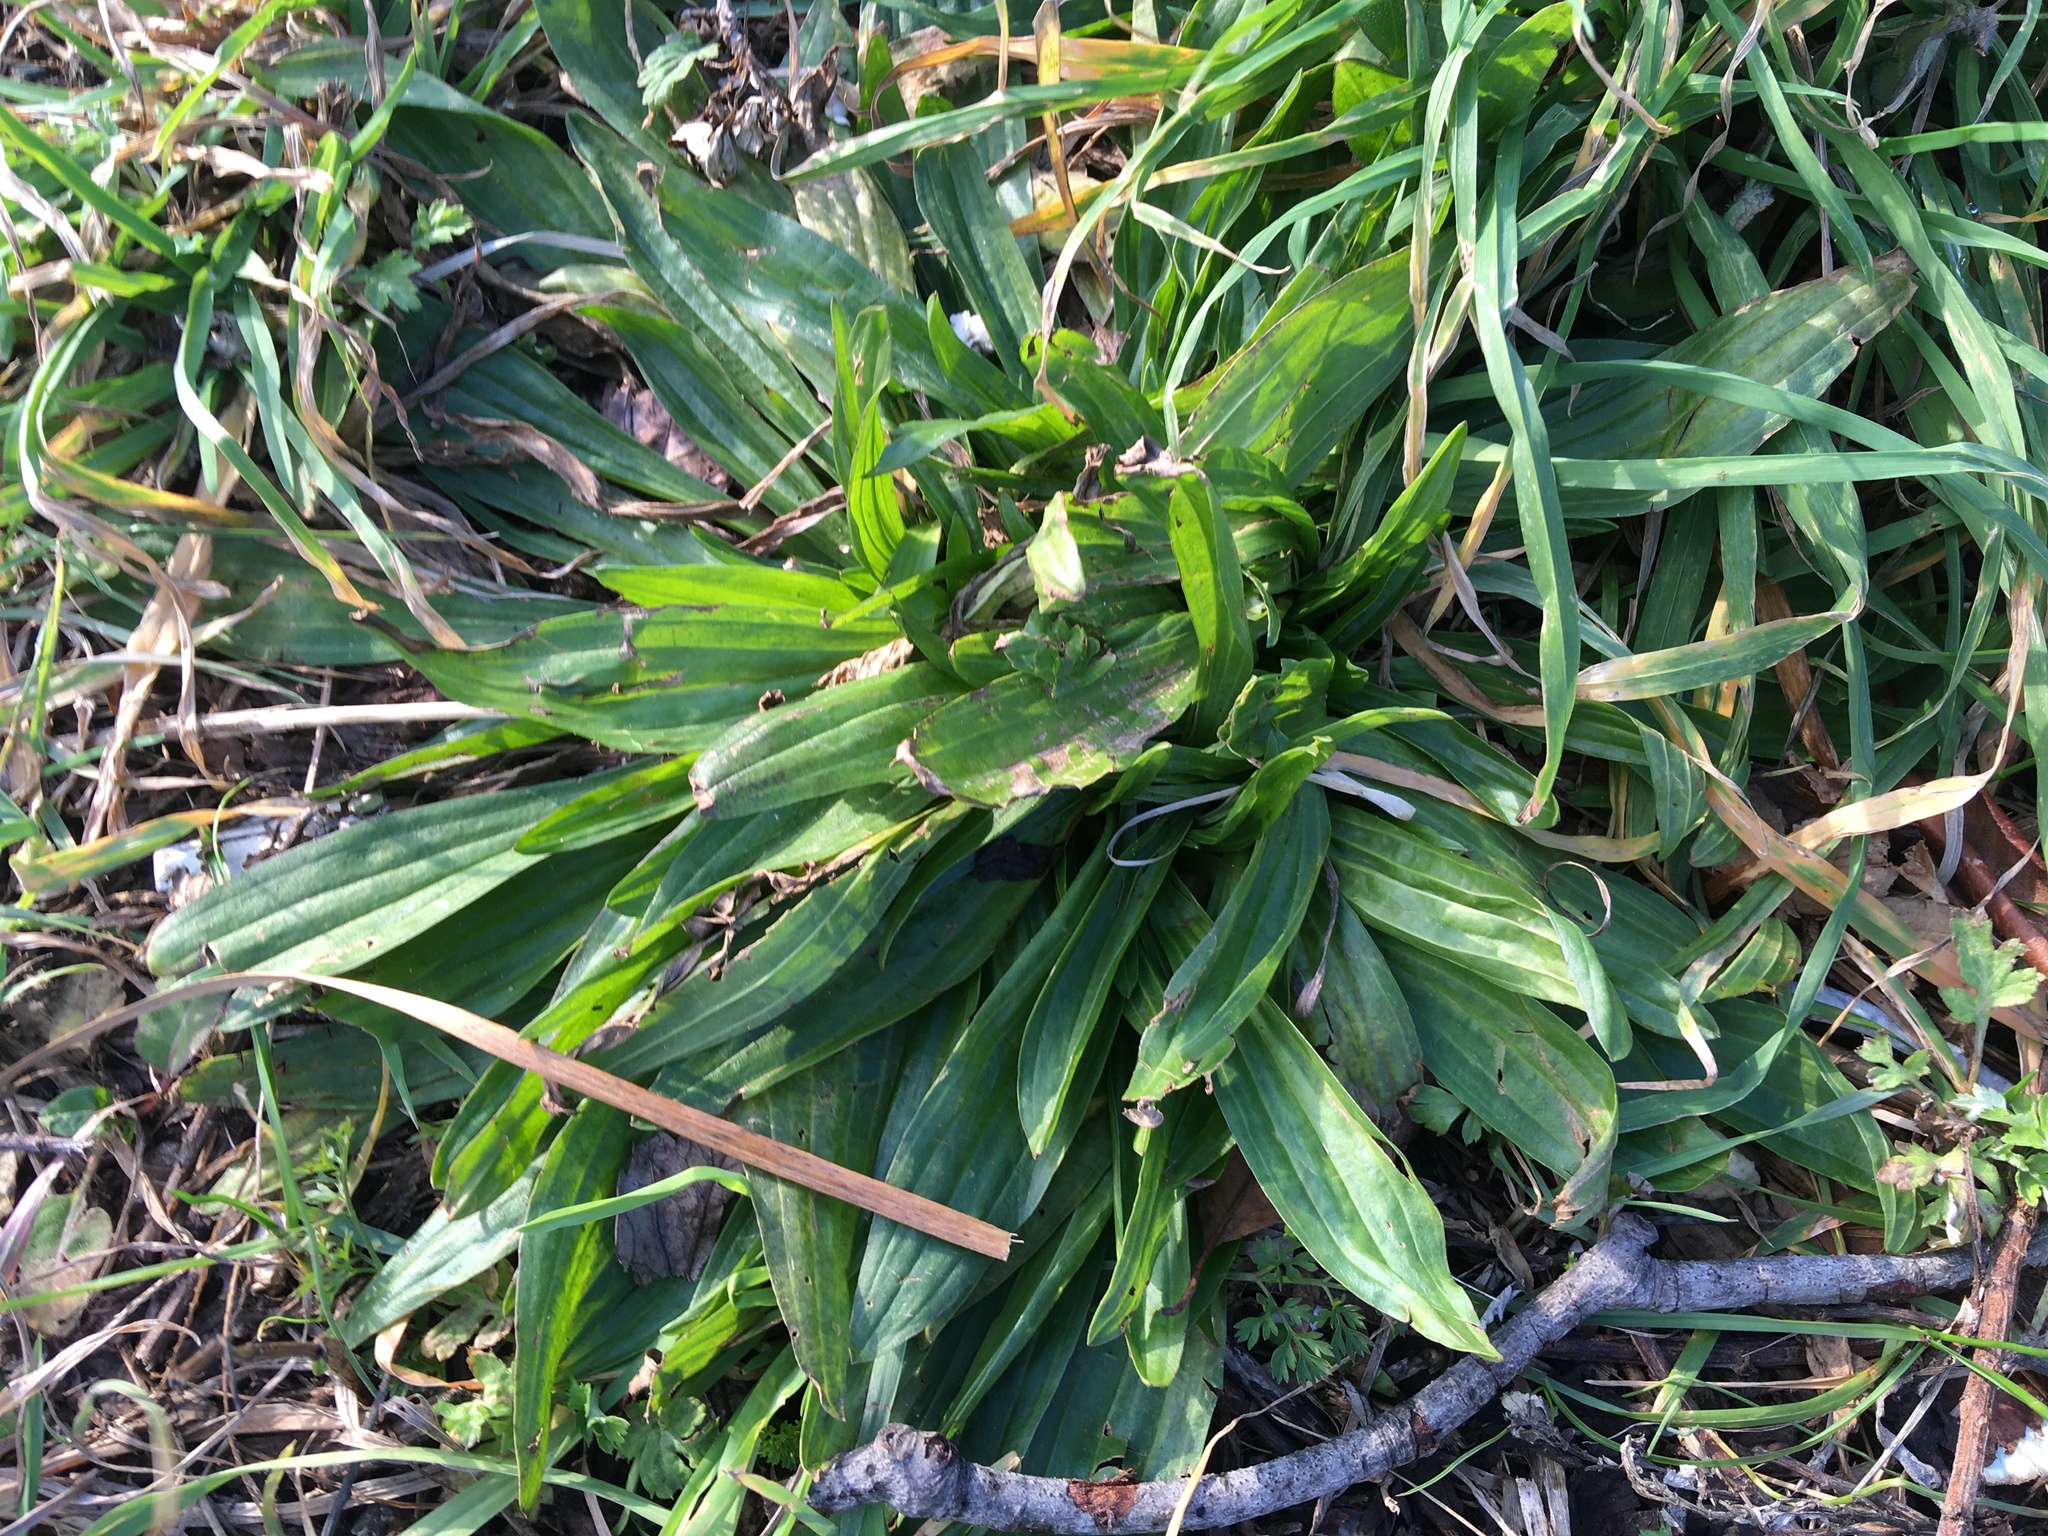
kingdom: Plantae
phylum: Tracheophyta
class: Magnoliopsida
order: Lamiales
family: Plantaginaceae
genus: Plantago
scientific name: Plantago lanceolata
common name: Ribwort plantain
